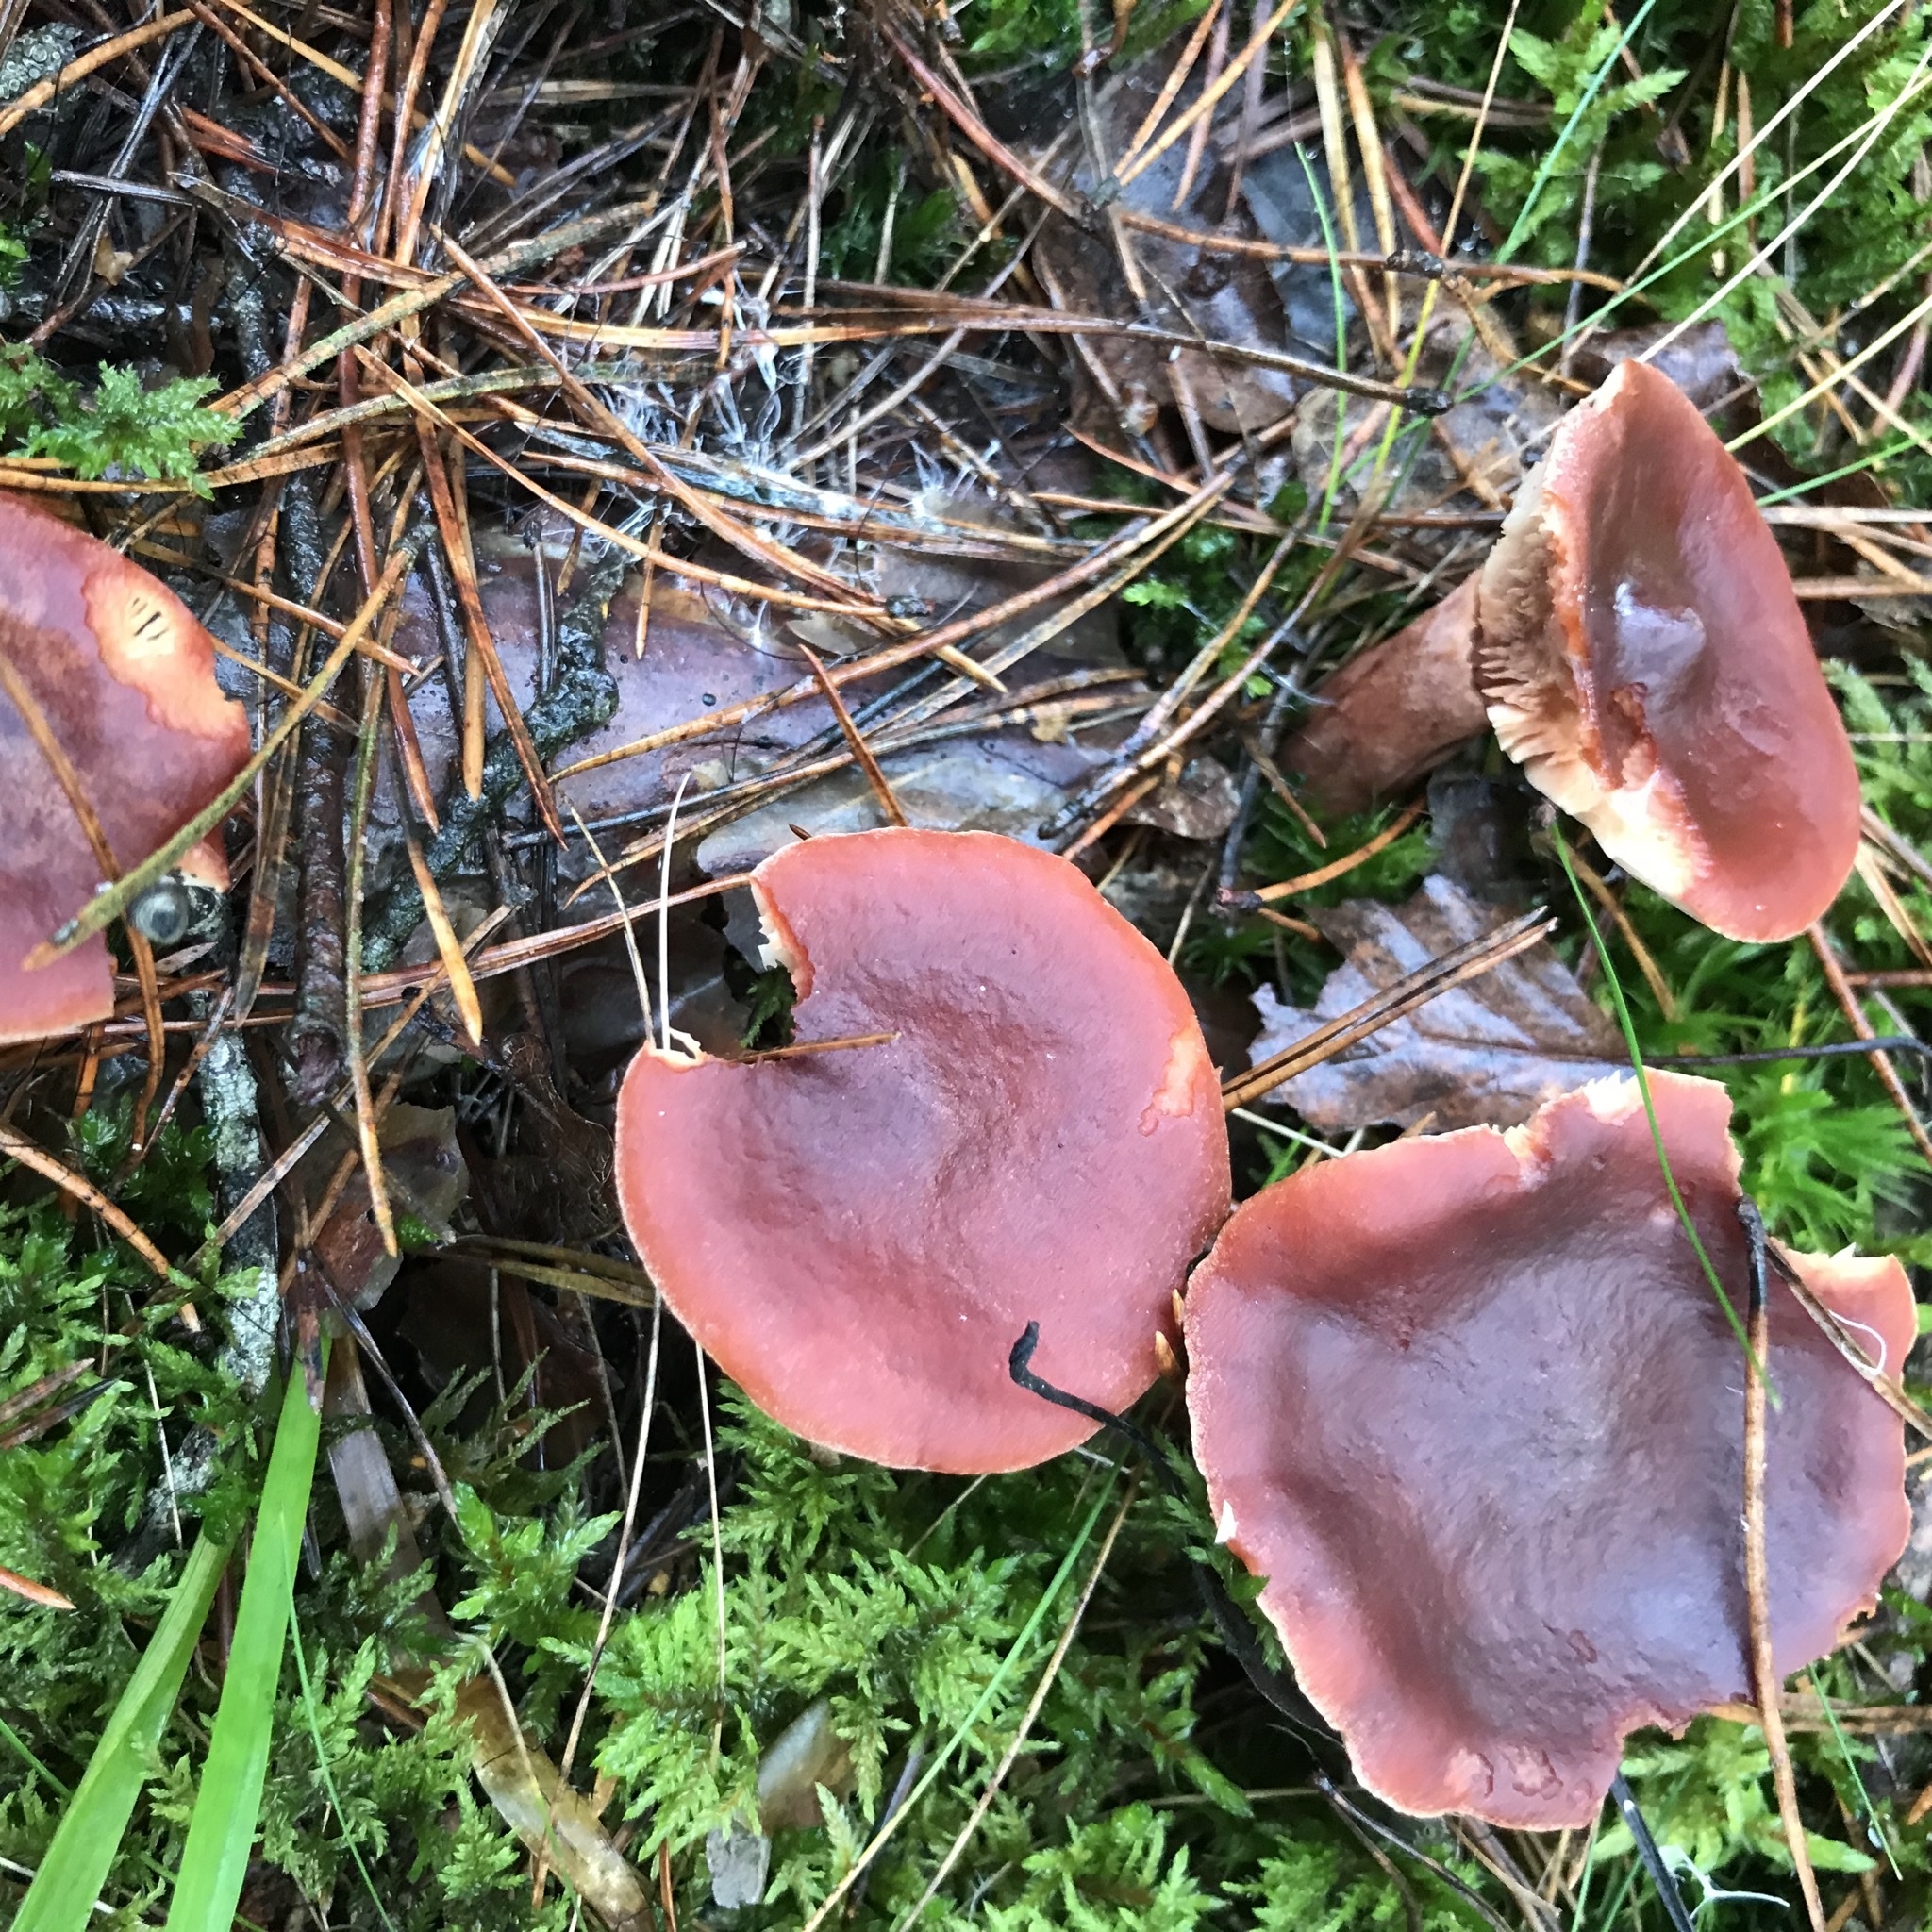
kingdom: Fungi
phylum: Basidiomycota
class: Agaricomycetes
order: Russulales
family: Russulaceae
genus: Lactarius
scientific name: Lactarius rufus
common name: Rufous milk-cap
